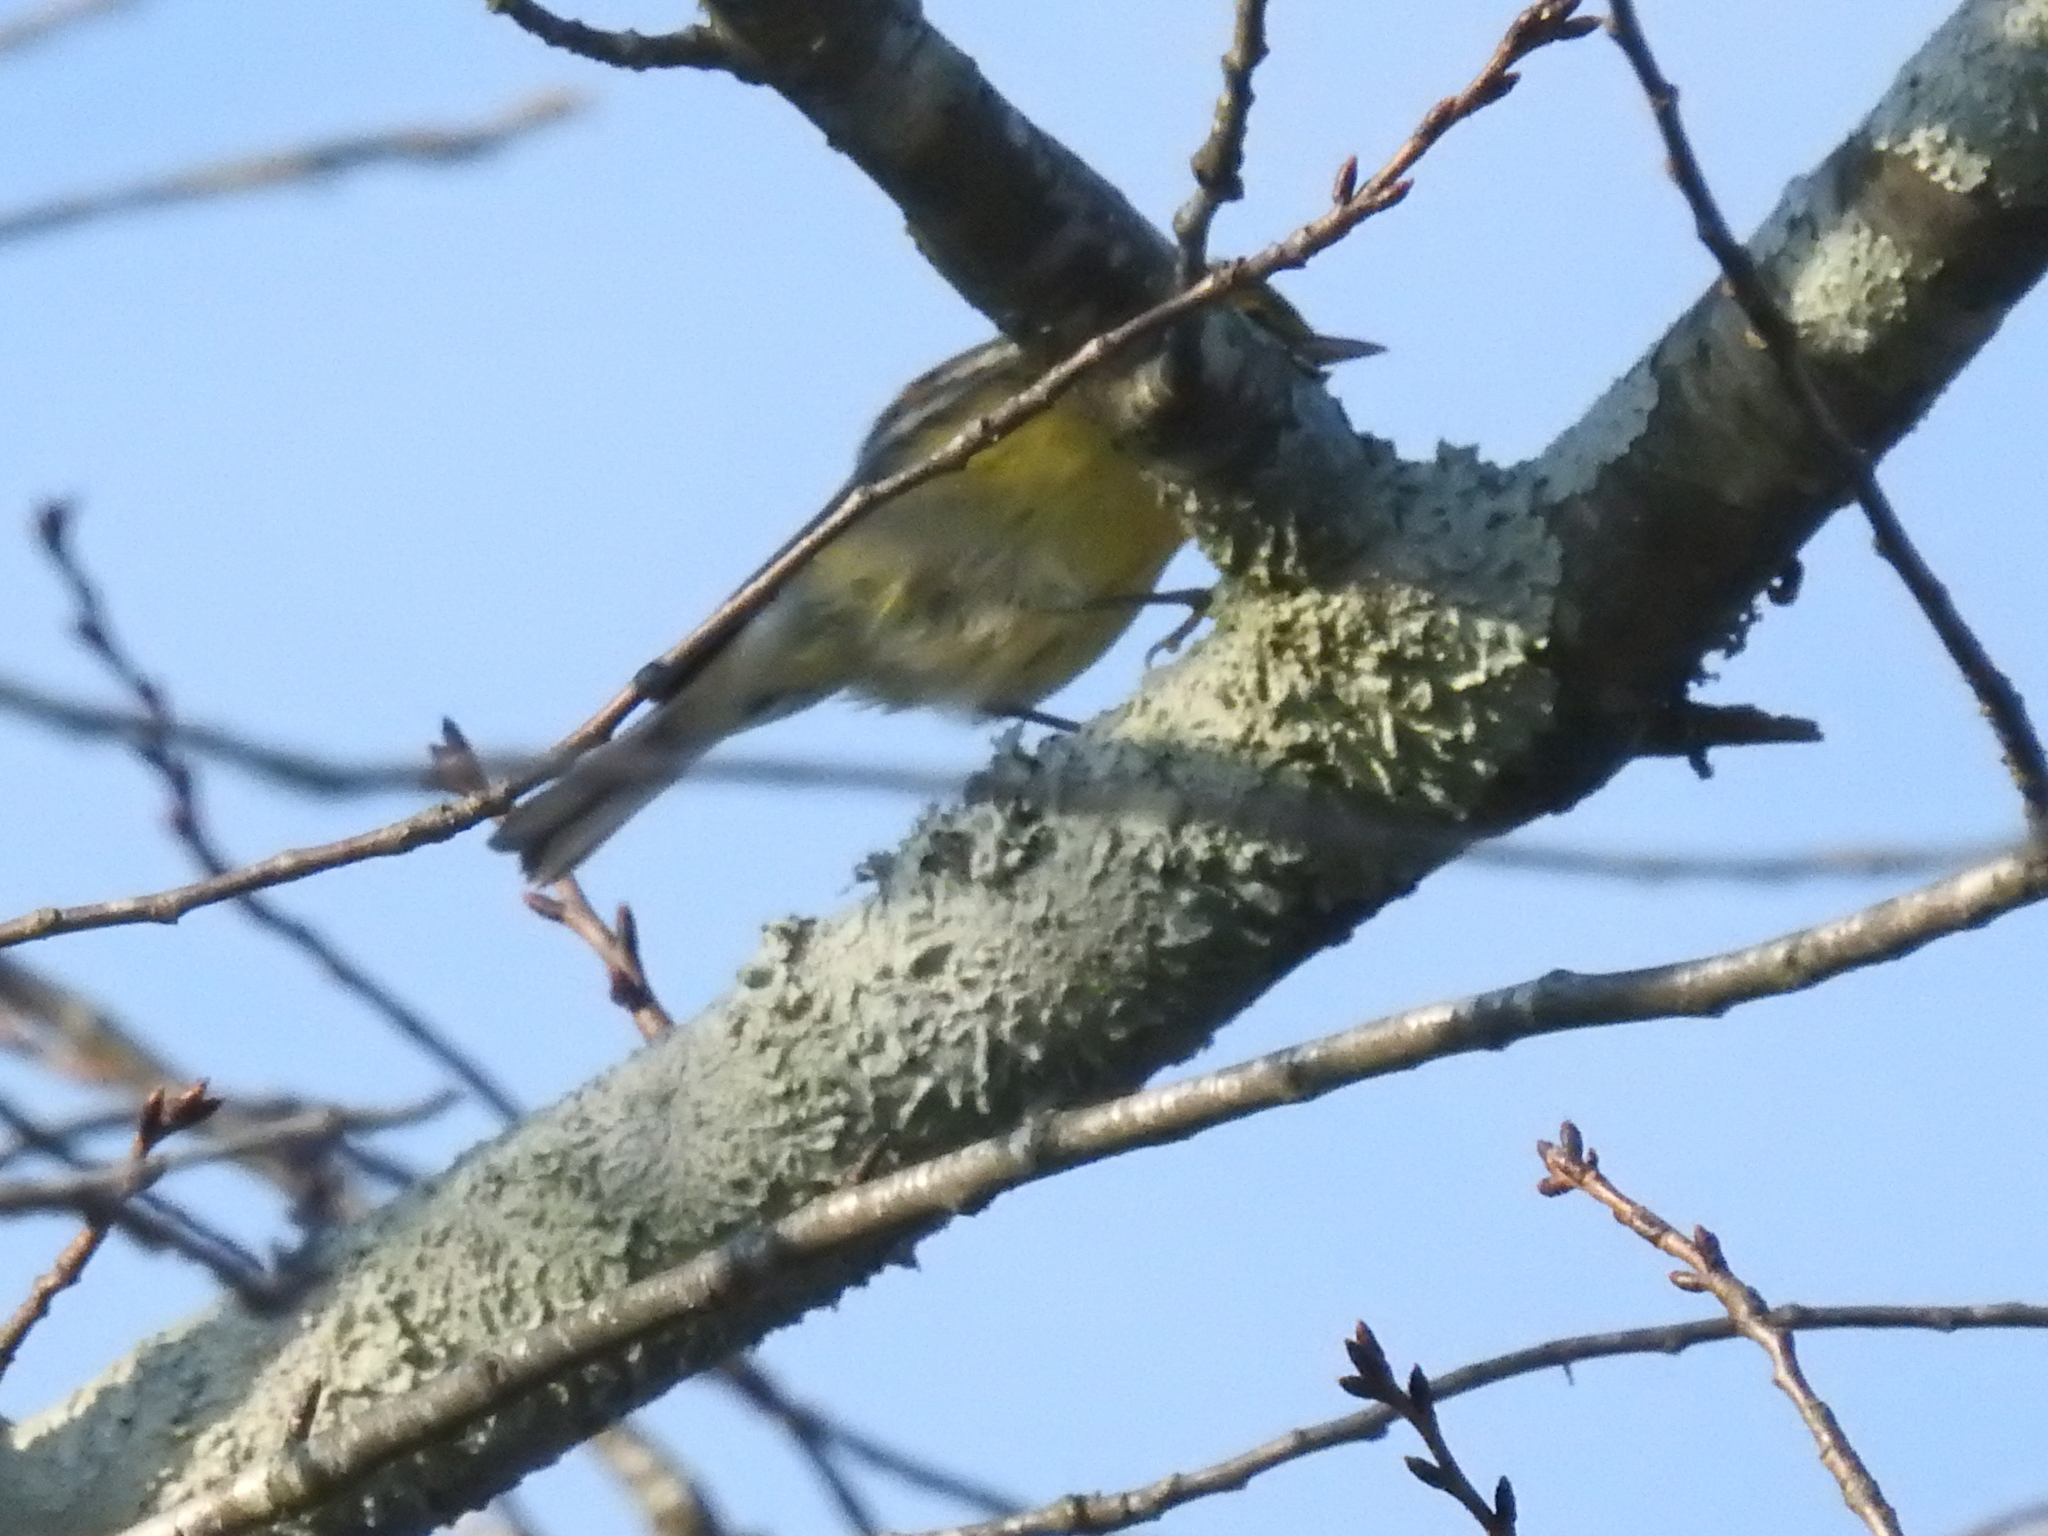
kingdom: Animalia
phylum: Chordata
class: Aves
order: Passeriformes
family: Parulidae
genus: Setophaga
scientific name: Setophaga pinus
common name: Pine warbler
